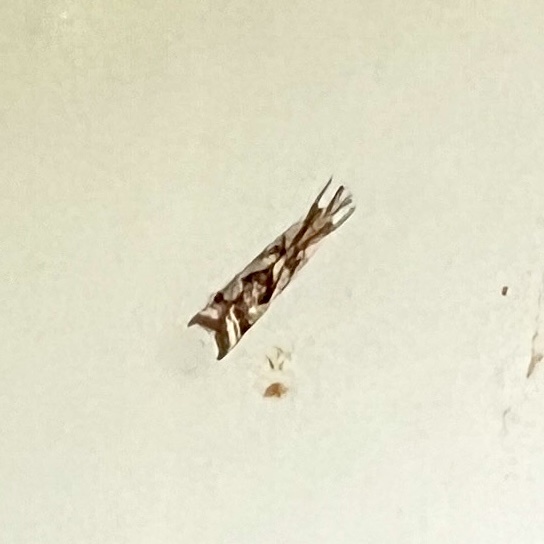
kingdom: Animalia
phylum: Arthropoda
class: Insecta
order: Lepidoptera
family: Crambidae
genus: Microcrambus
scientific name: Microcrambus elegans
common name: Elegant grass-veneer
